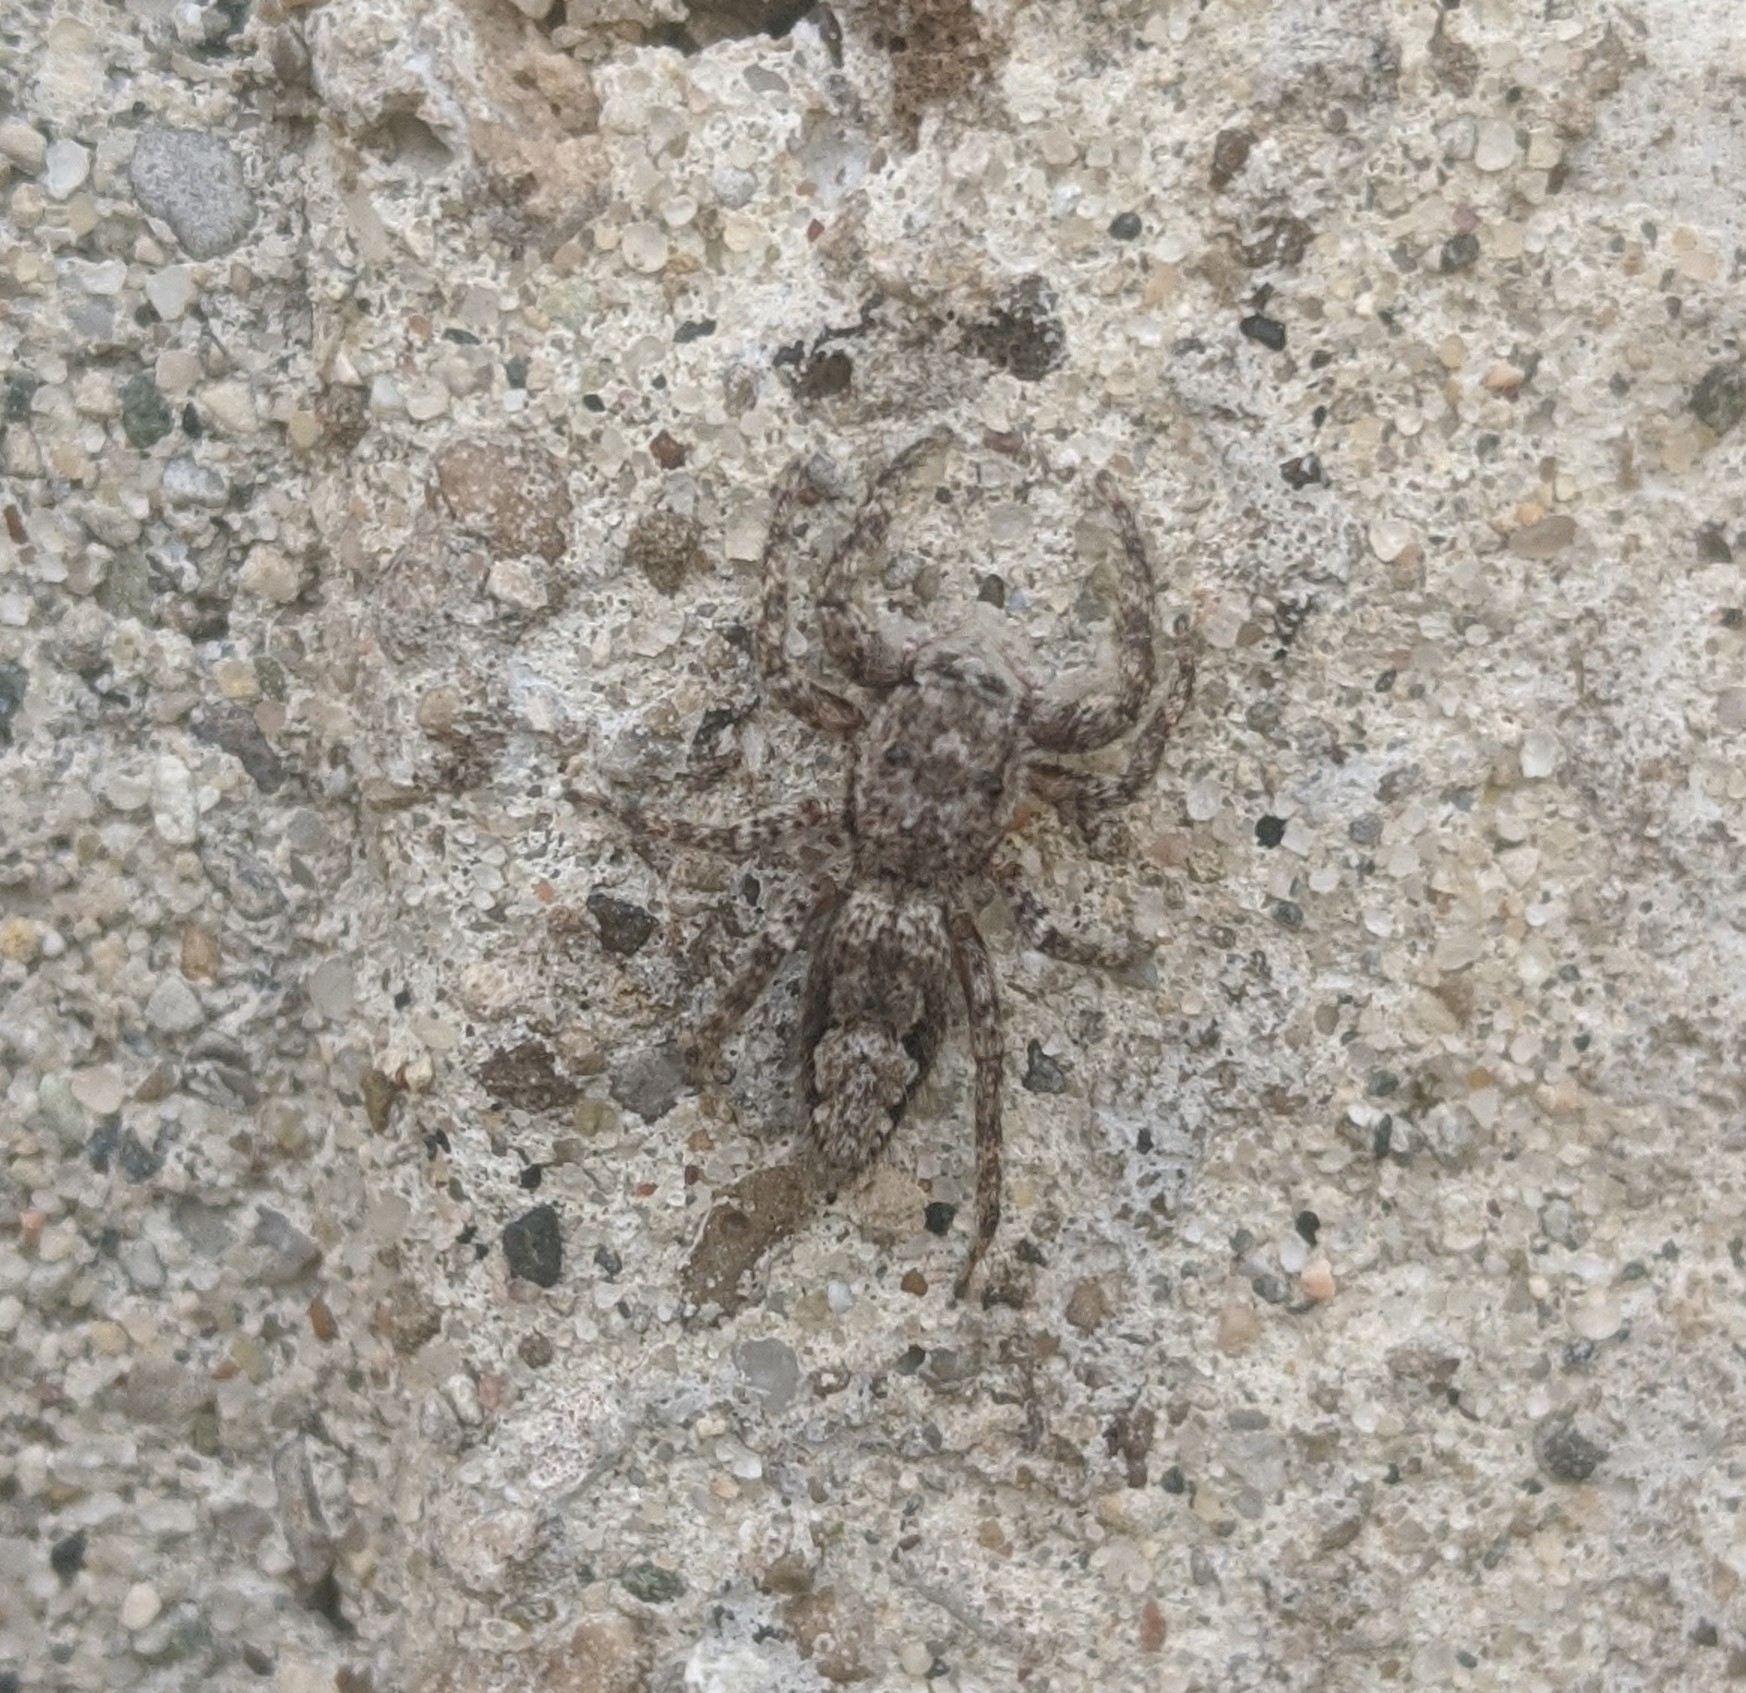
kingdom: Animalia
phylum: Arthropoda
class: Arachnida
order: Araneae
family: Salticidae
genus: Platycryptus
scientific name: Platycryptus undatus
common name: Tan jumping spider
